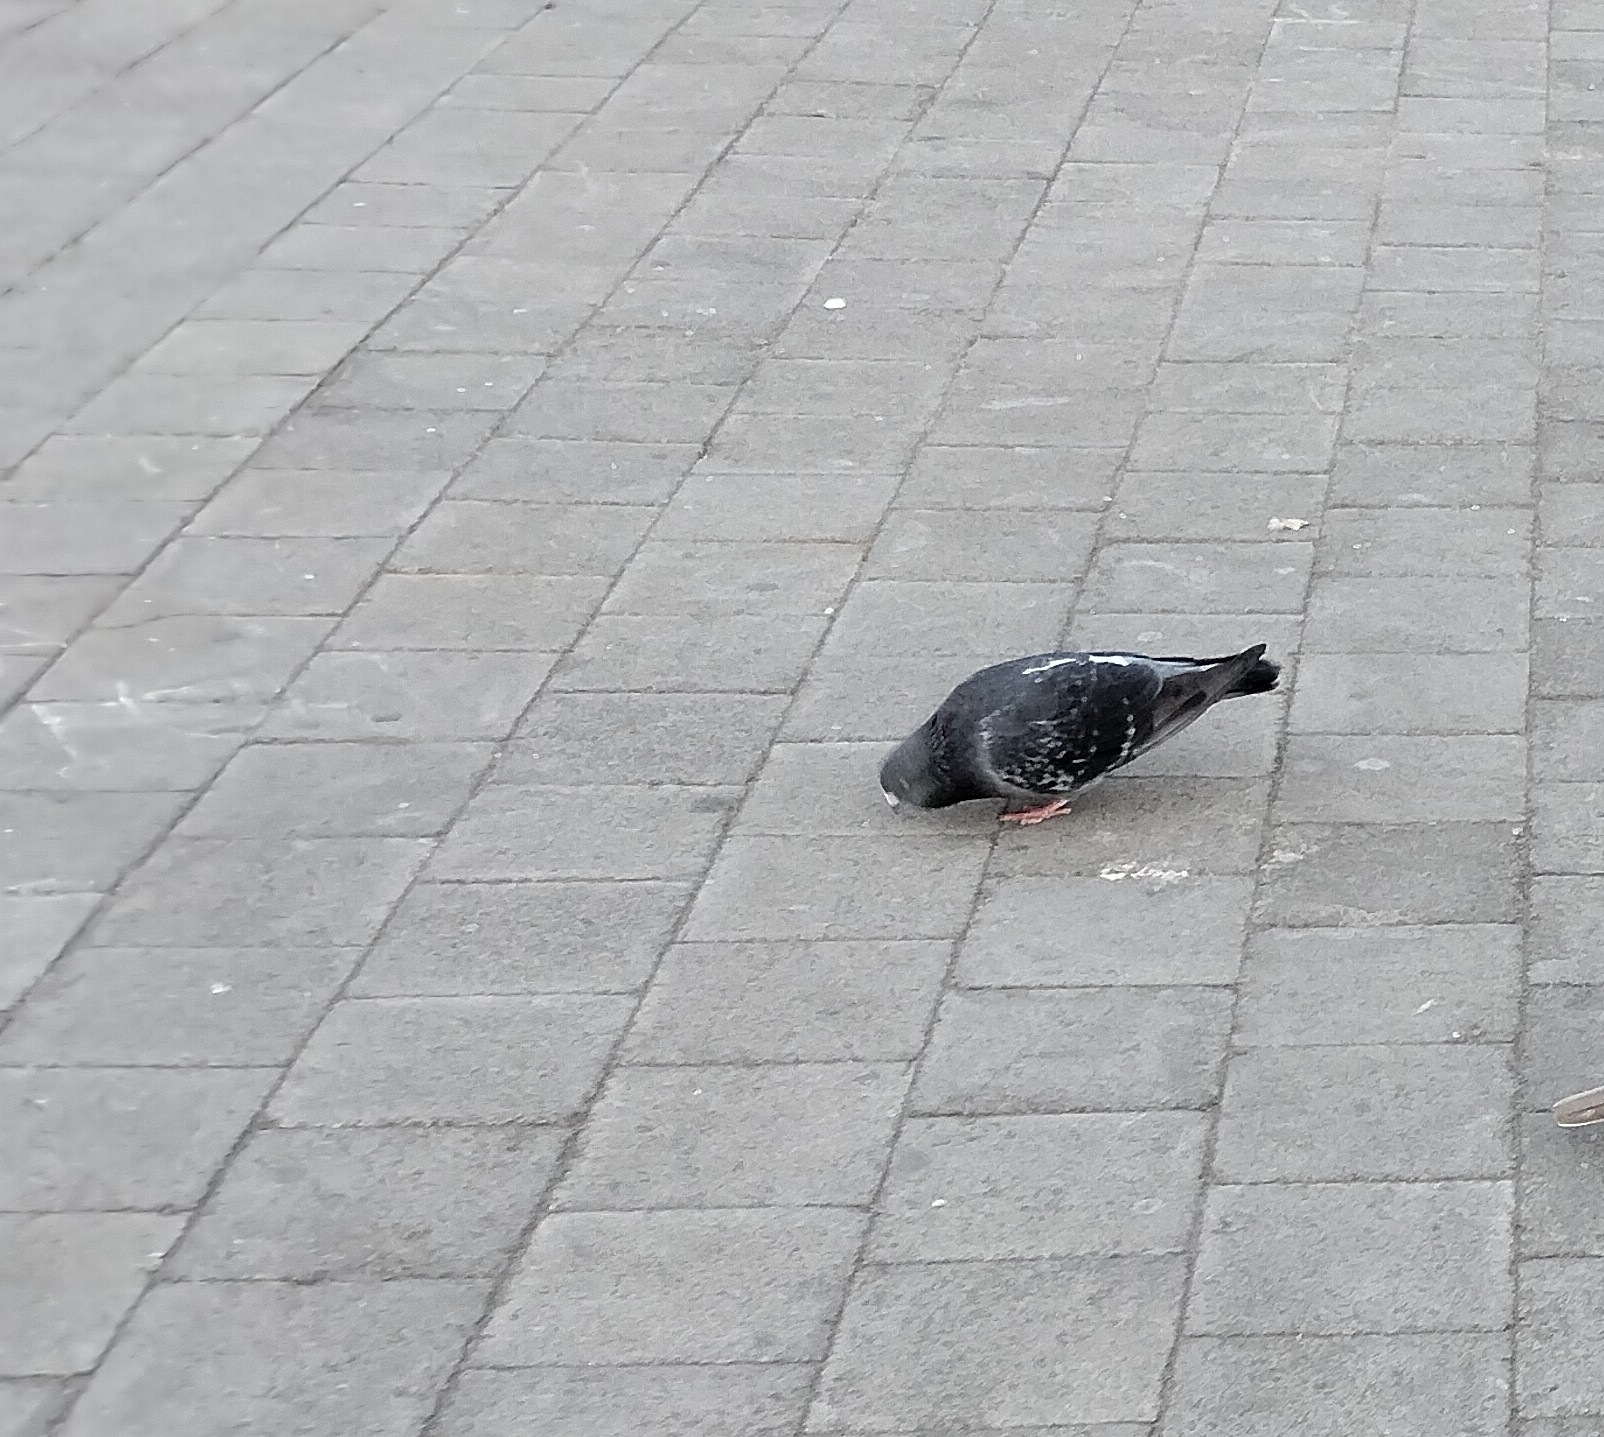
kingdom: Animalia
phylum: Chordata
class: Aves
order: Columbiformes
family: Columbidae
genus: Columba
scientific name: Columba livia
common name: Rock pigeon
